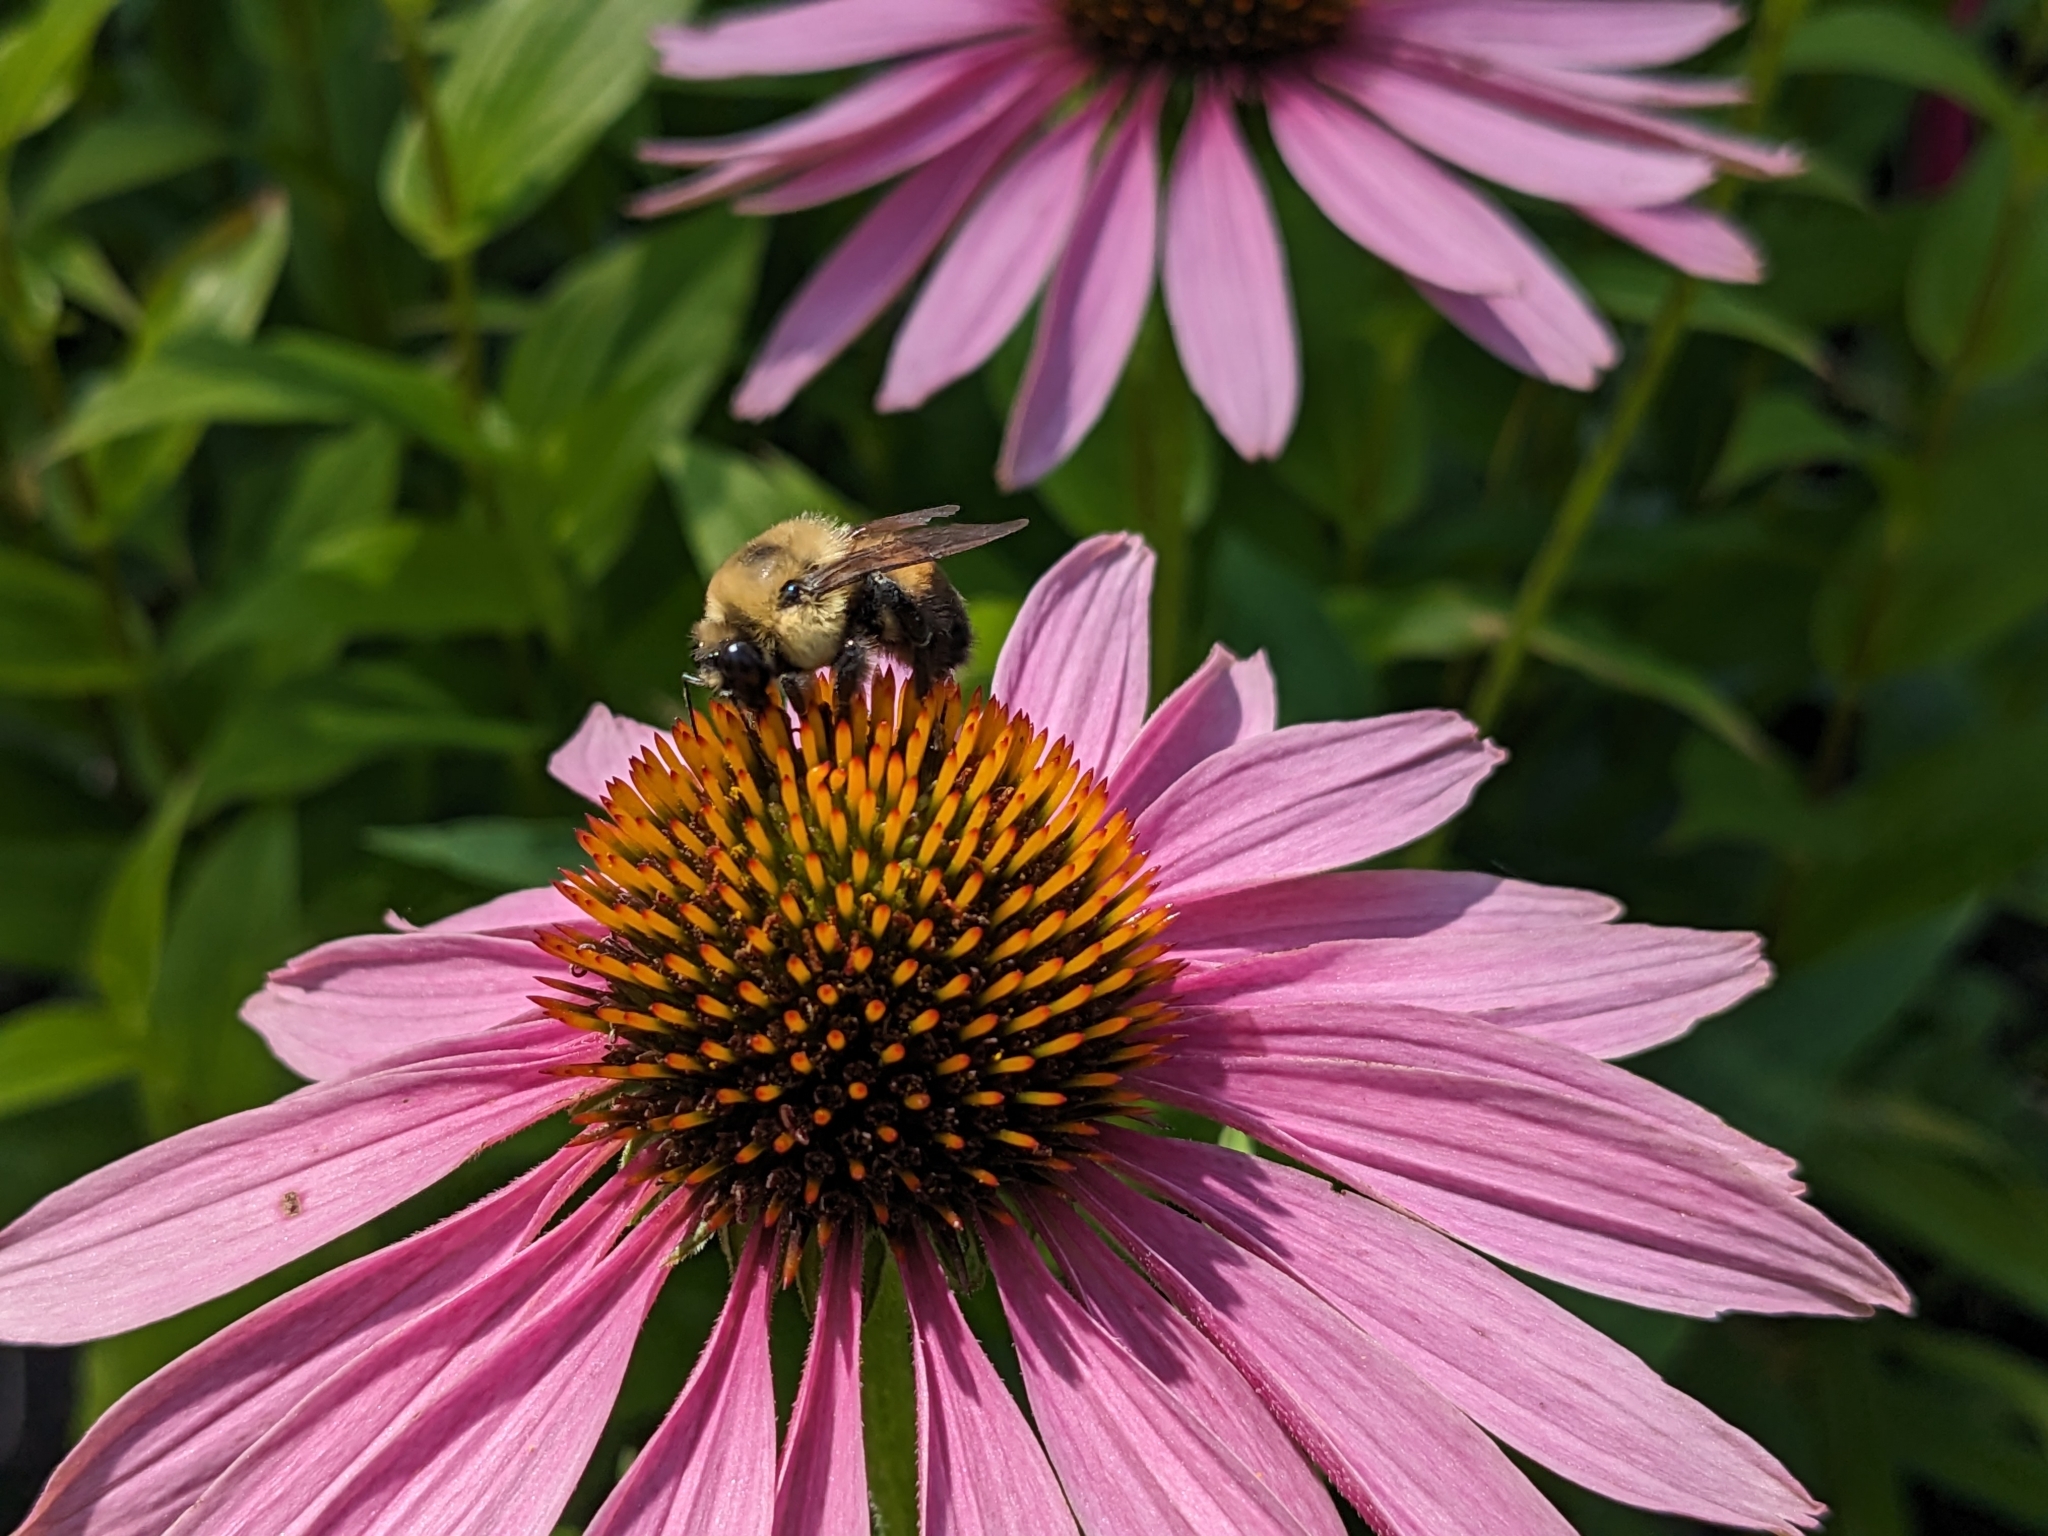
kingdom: Animalia
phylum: Arthropoda
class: Insecta
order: Hymenoptera
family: Apidae
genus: Bombus
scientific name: Bombus griseocollis
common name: Brown-belted bumble bee
